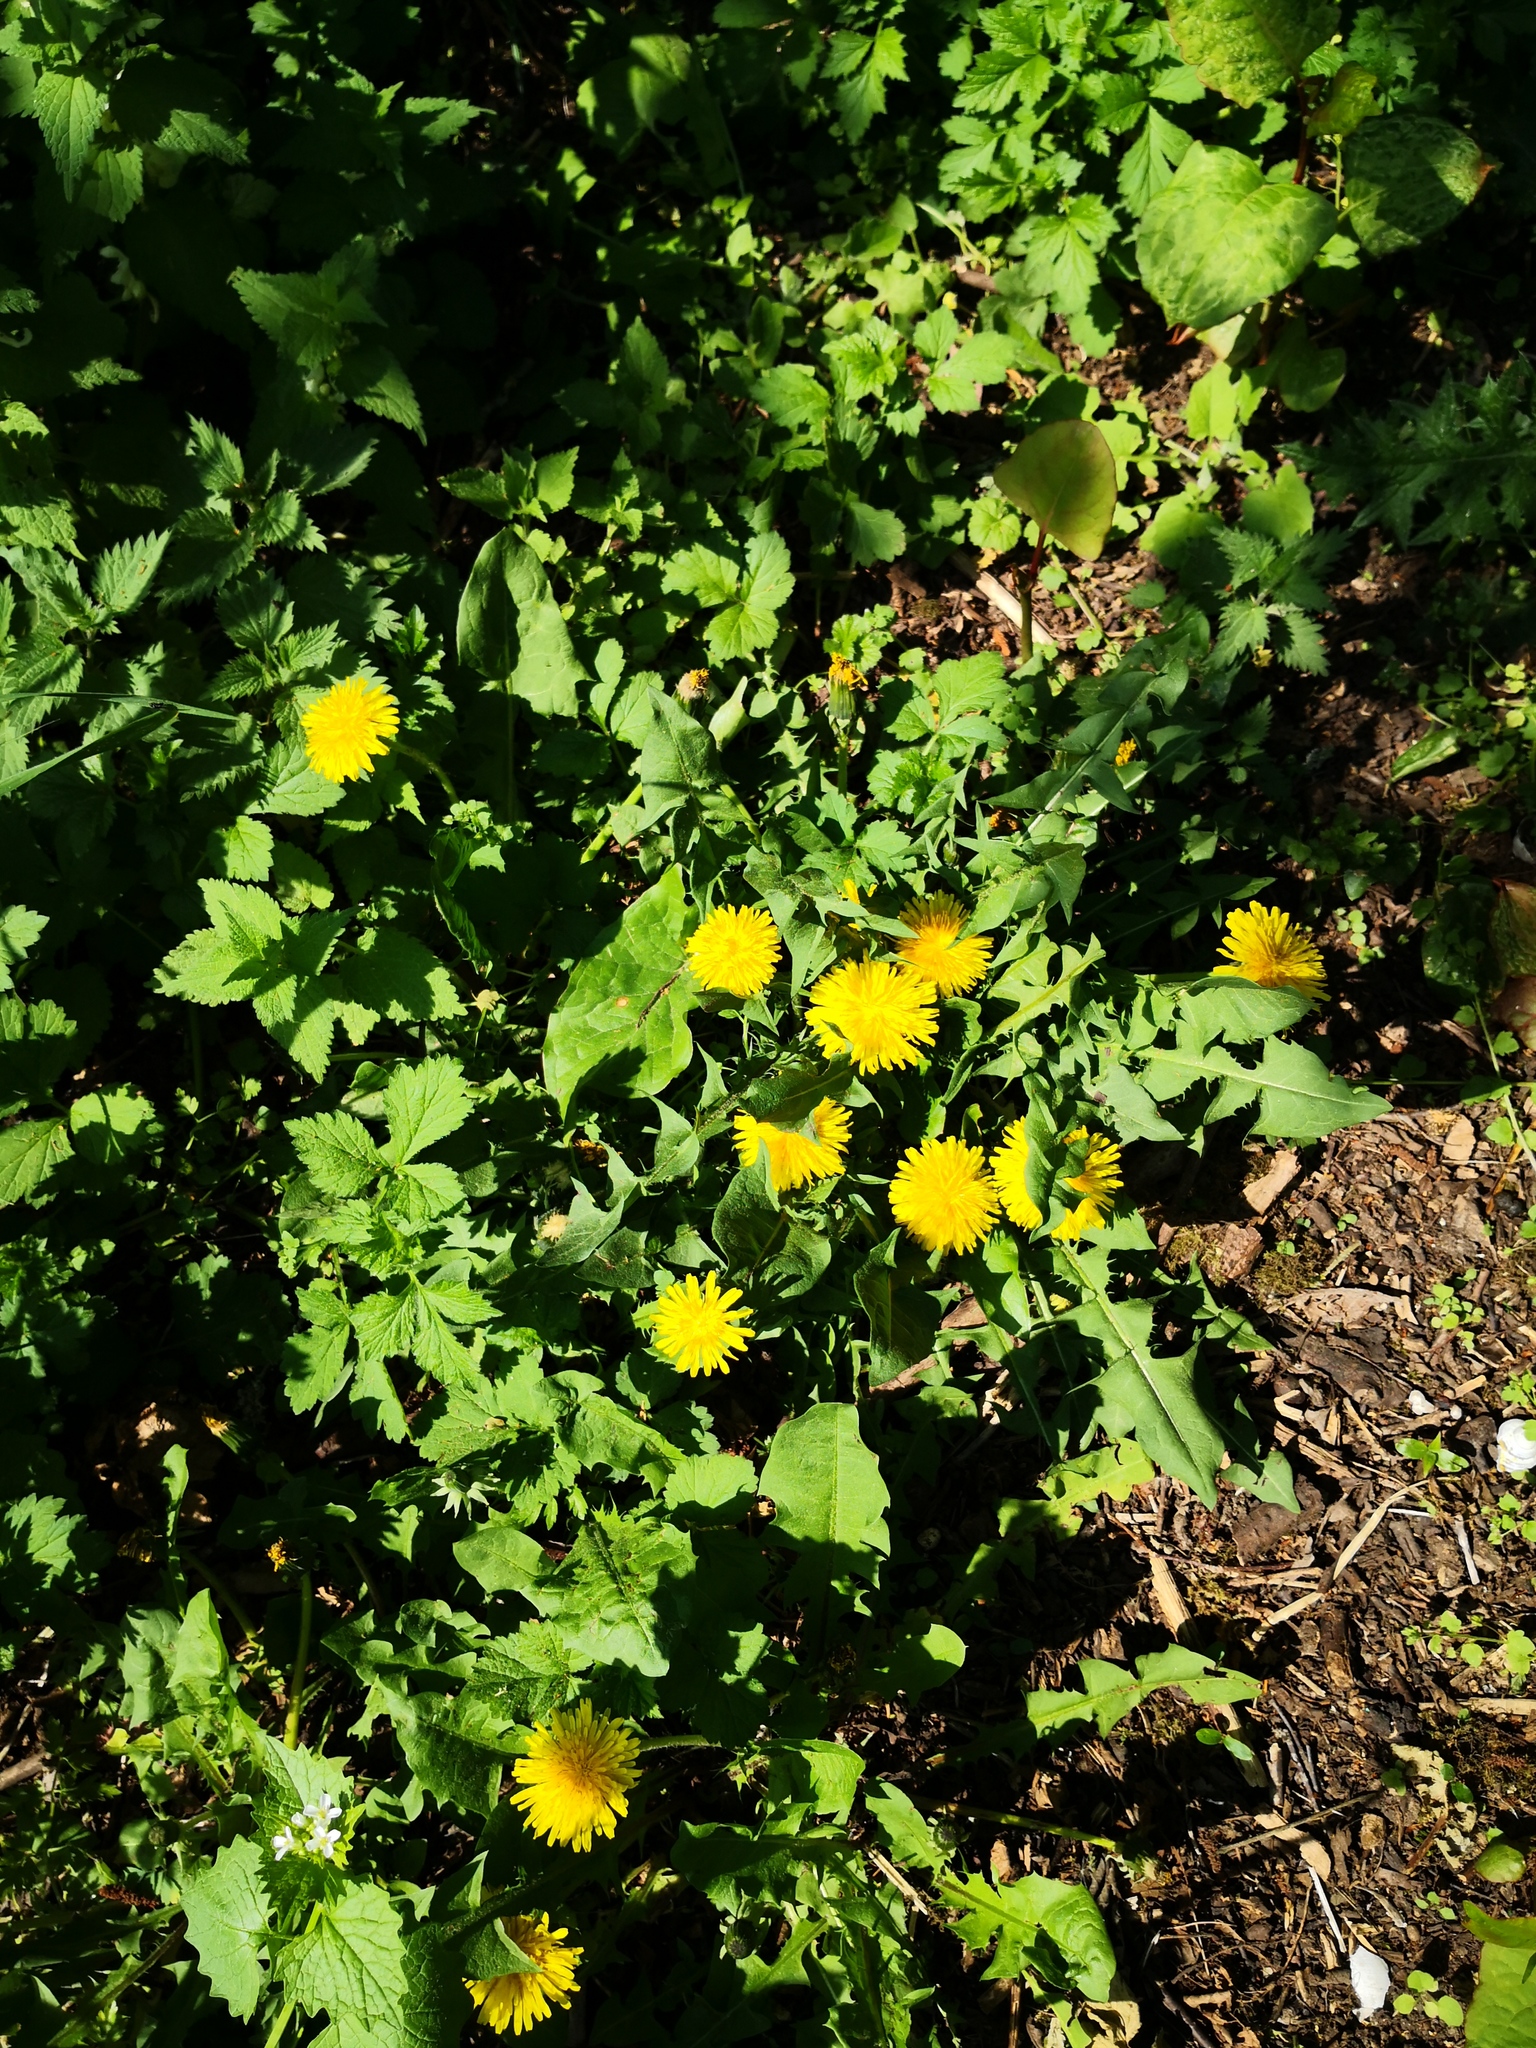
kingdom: Plantae
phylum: Tracheophyta
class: Magnoliopsida
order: Asterales
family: Asteraceae
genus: Taraxacum
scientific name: Taraxacum officinale
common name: Common dandelion
